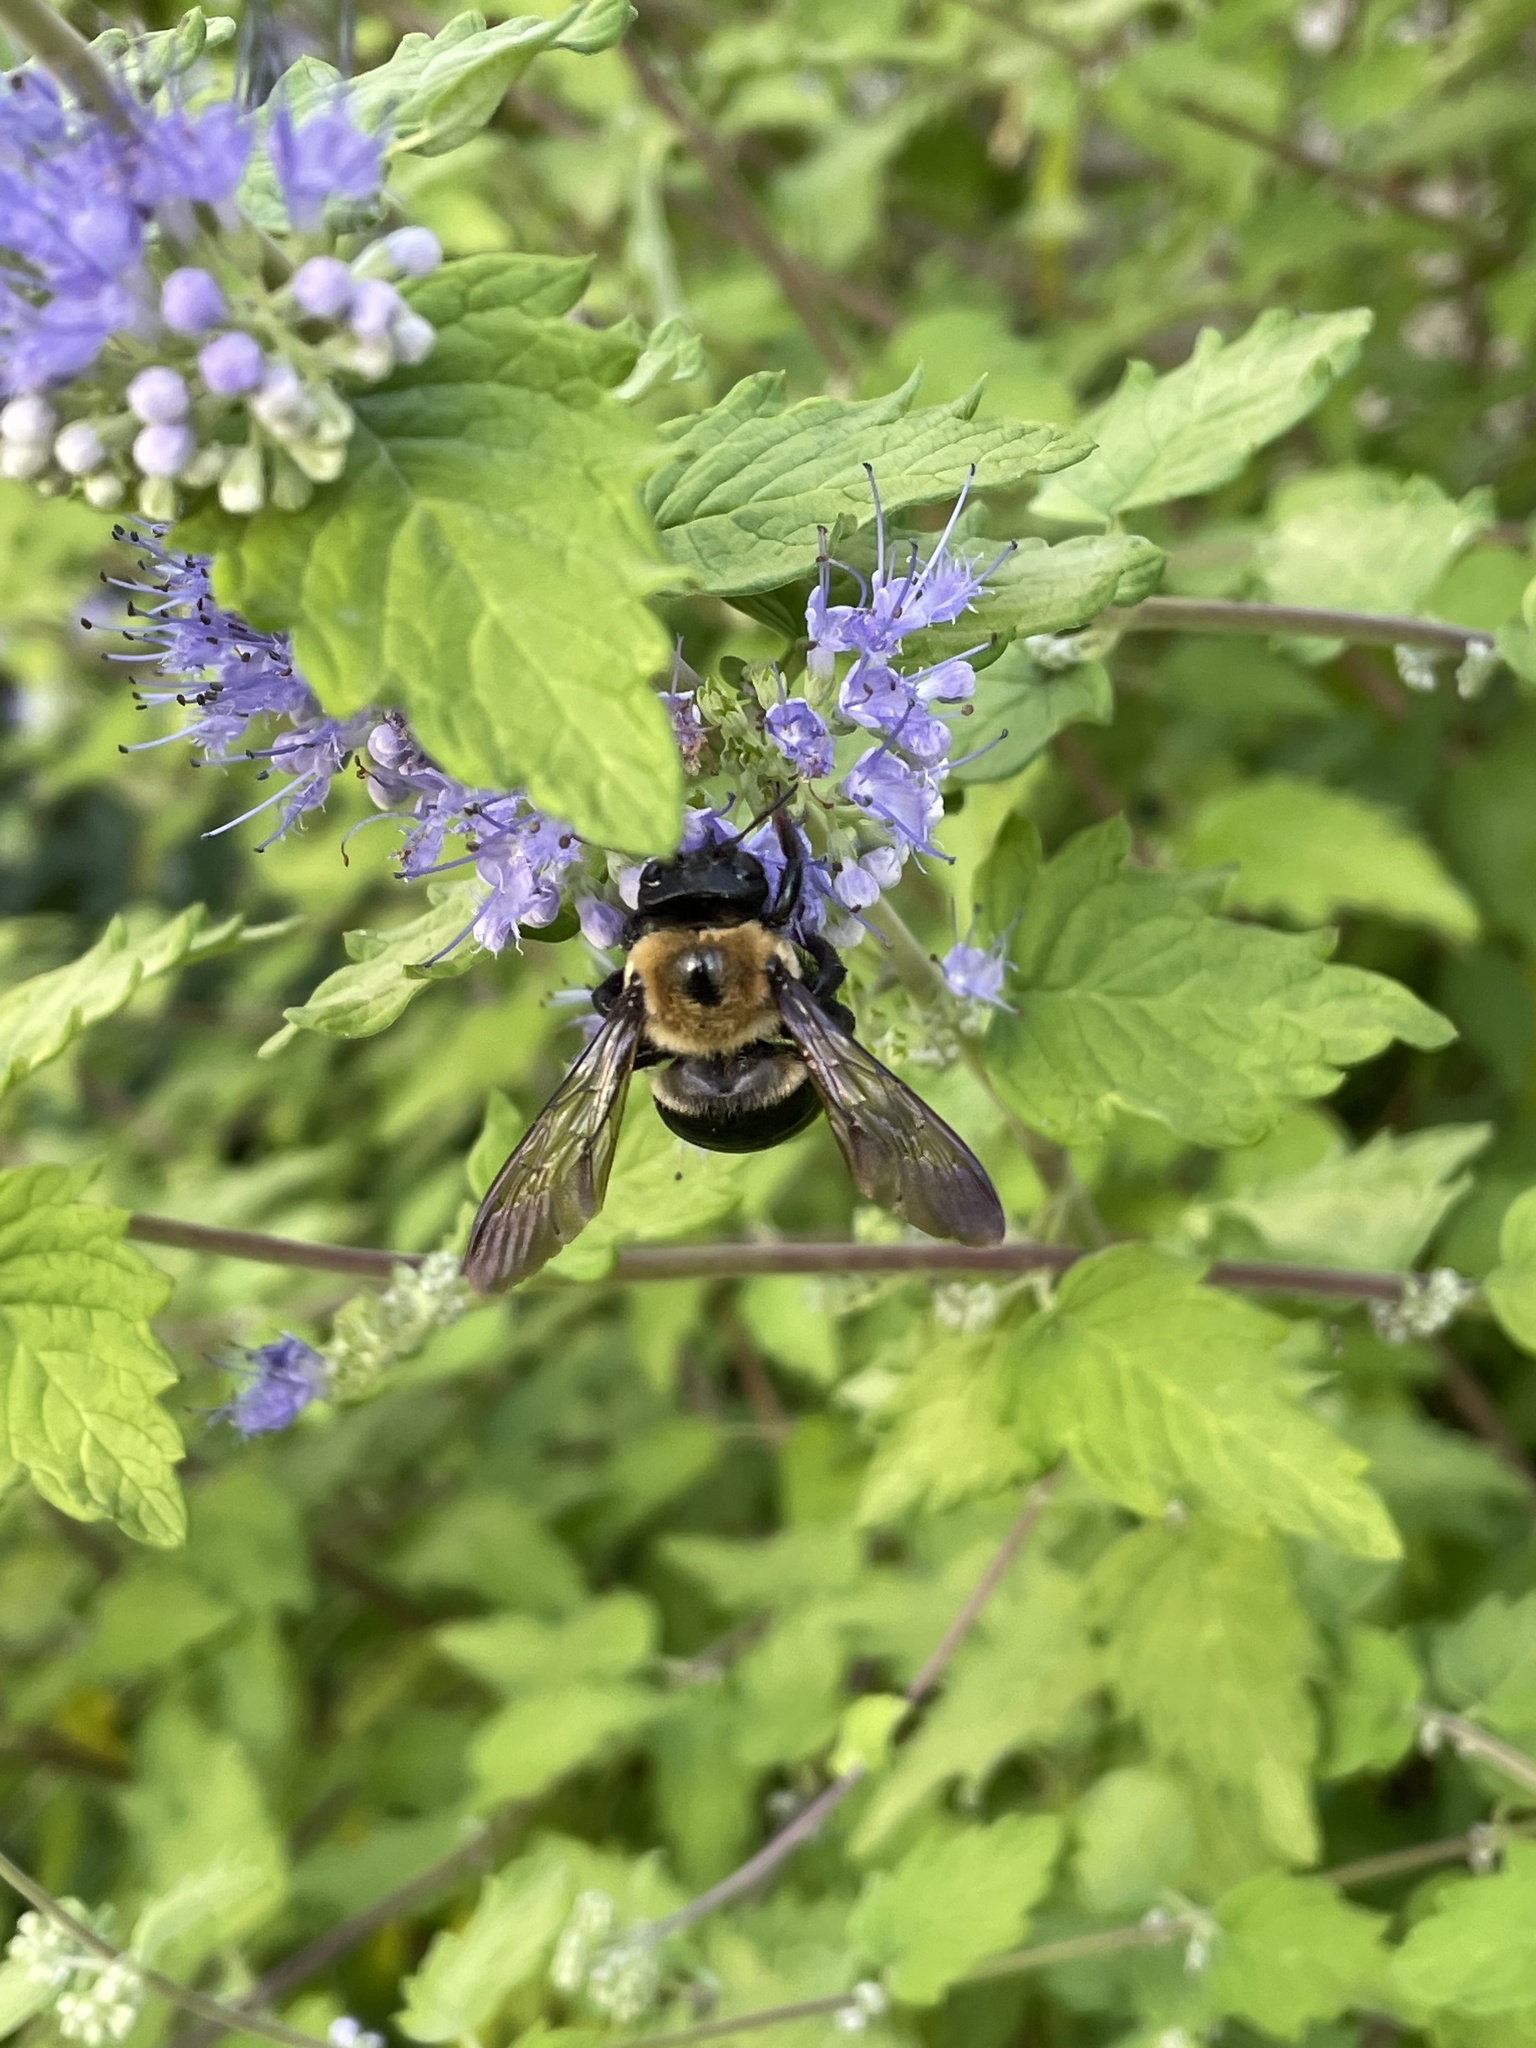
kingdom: Animalia
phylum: Arthropoda
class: Insecta
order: Hymenoptera
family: Apidae
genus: Xylocopa
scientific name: Xylocopa virginica
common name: Carpenter bee
